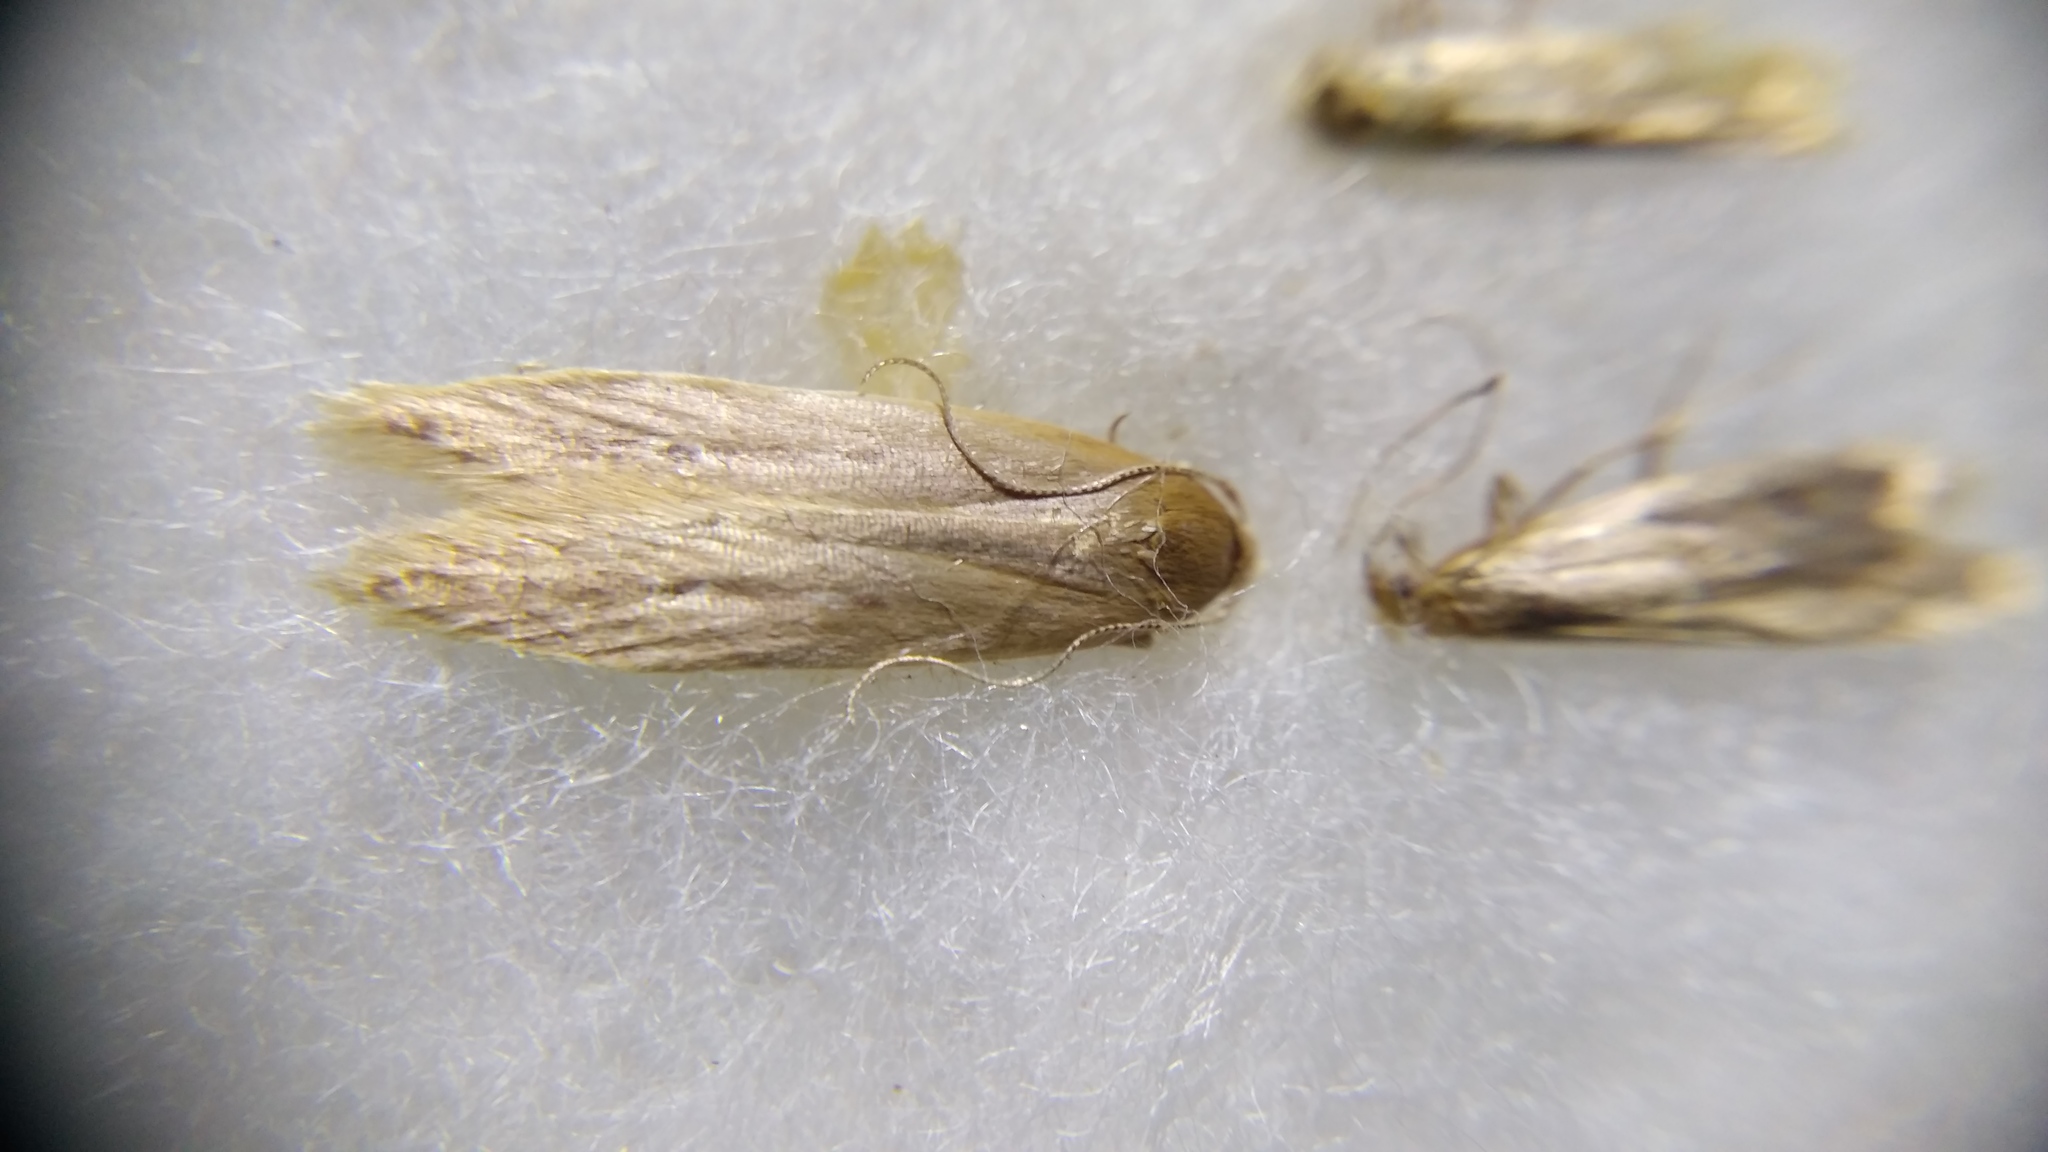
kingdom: Animalia
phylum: Arthropoda
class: Insecta
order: Lepidoptera
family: Cosmopterigidae
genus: Limnaecia
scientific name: Limnaecia phragmitella
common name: Bulrush cosmet
